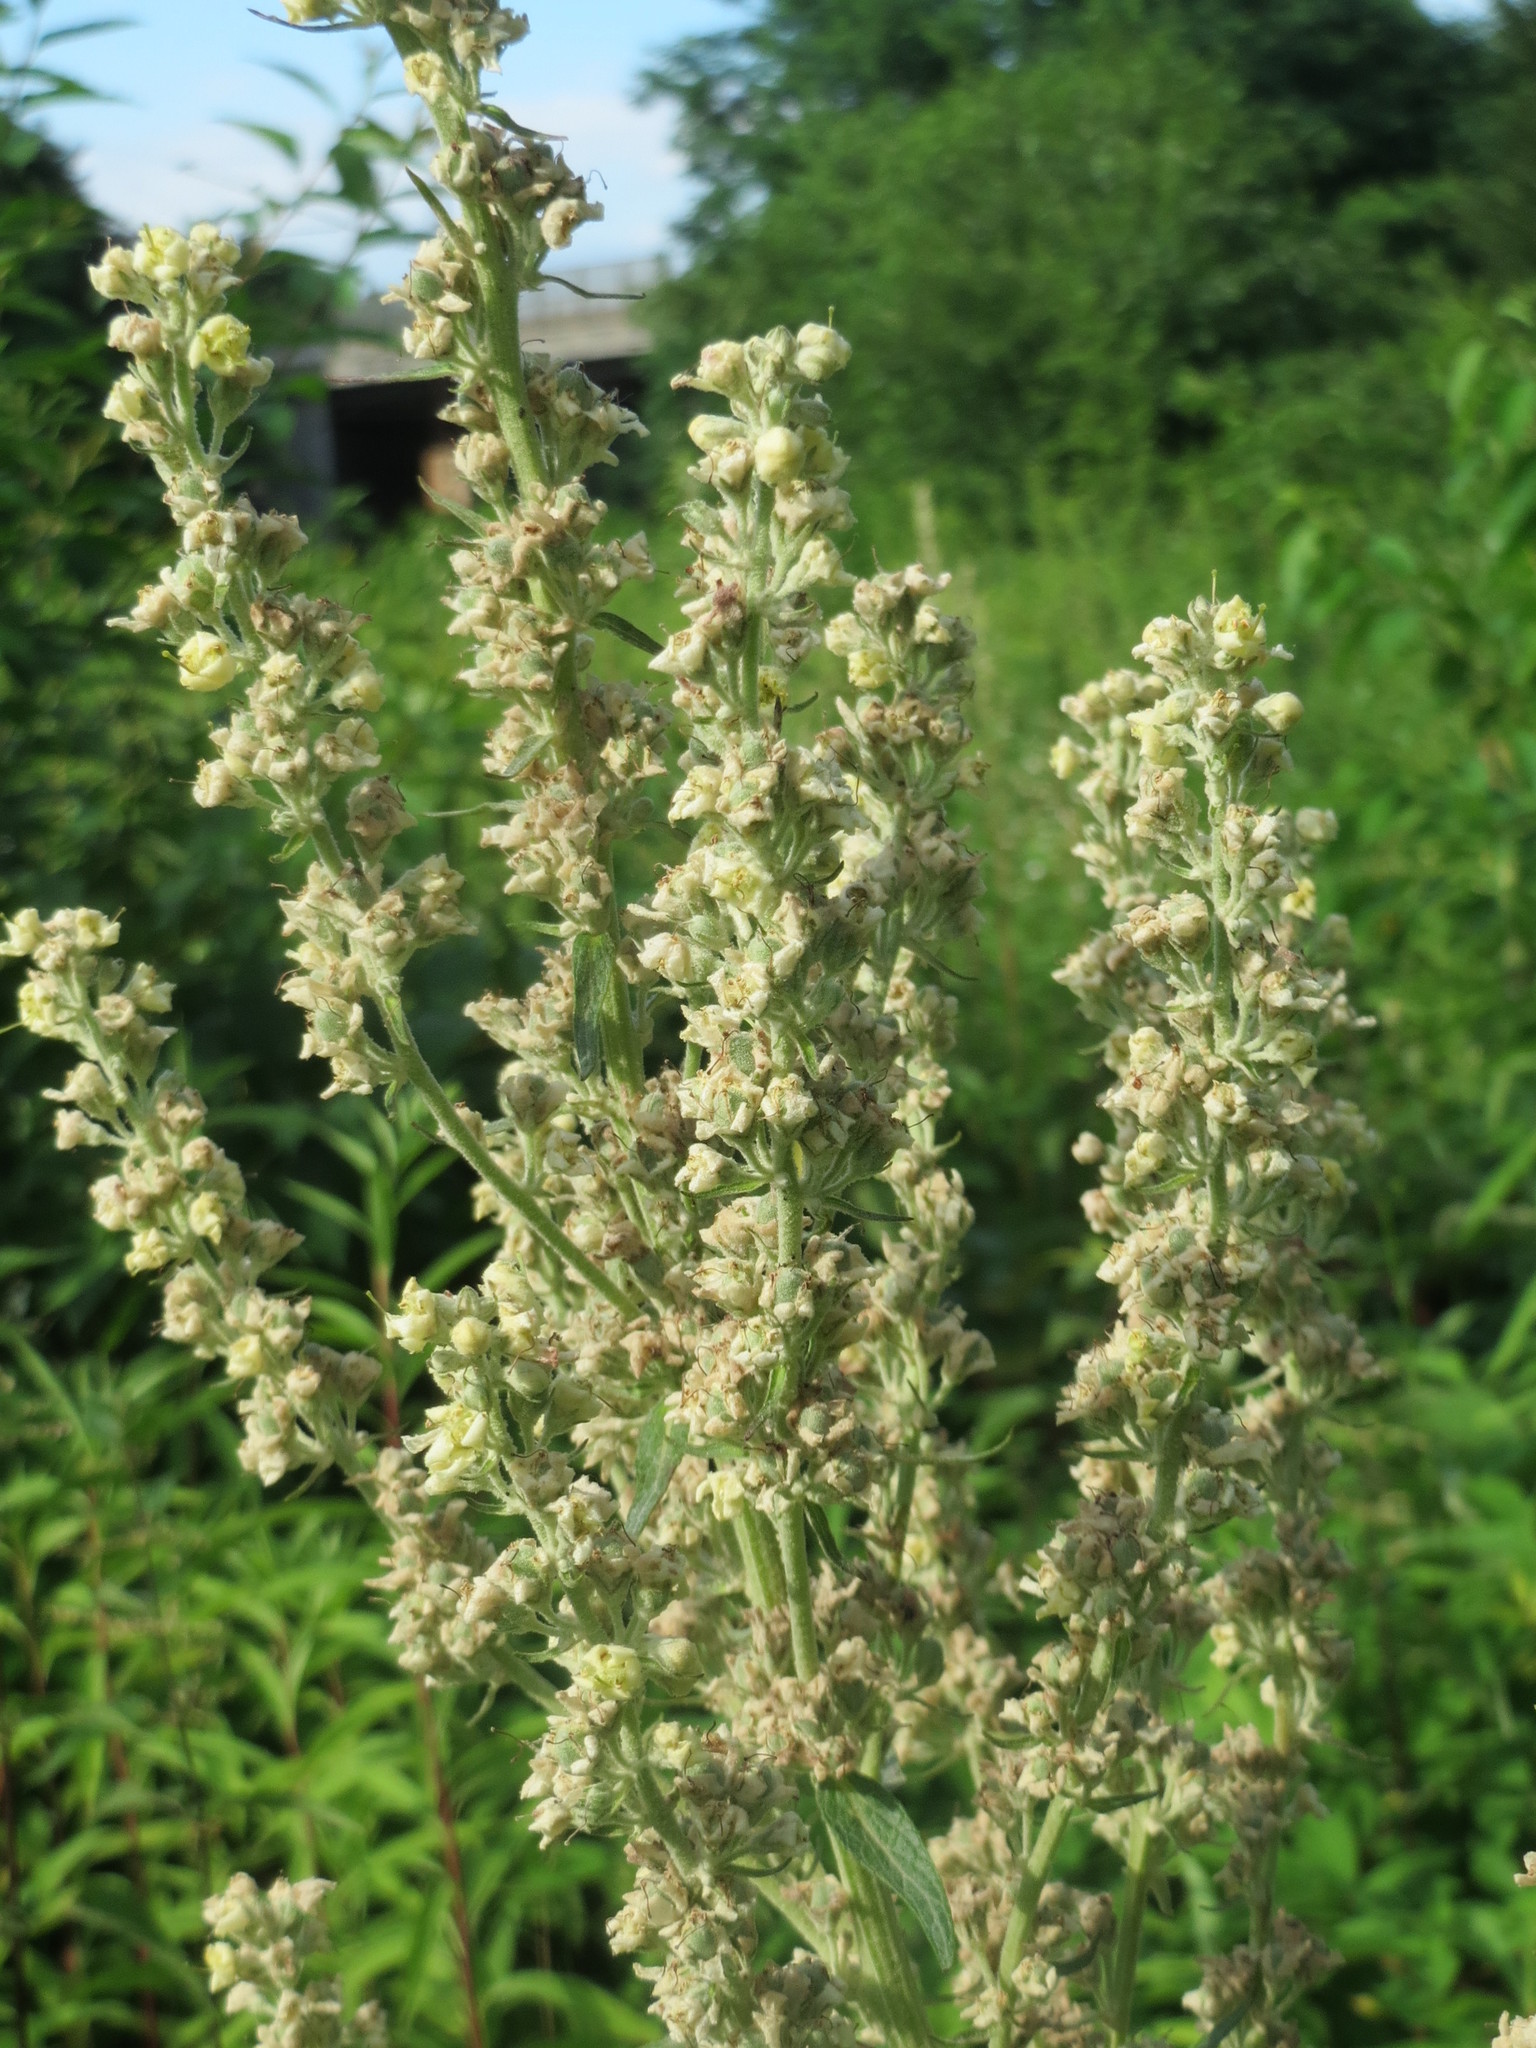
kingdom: Plantae
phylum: Tracheophyta
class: Magnoliopsida
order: Lamiales
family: Scrophulariaceae
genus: Verbascum
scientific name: Verbascum lychnitis
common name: White mullein
